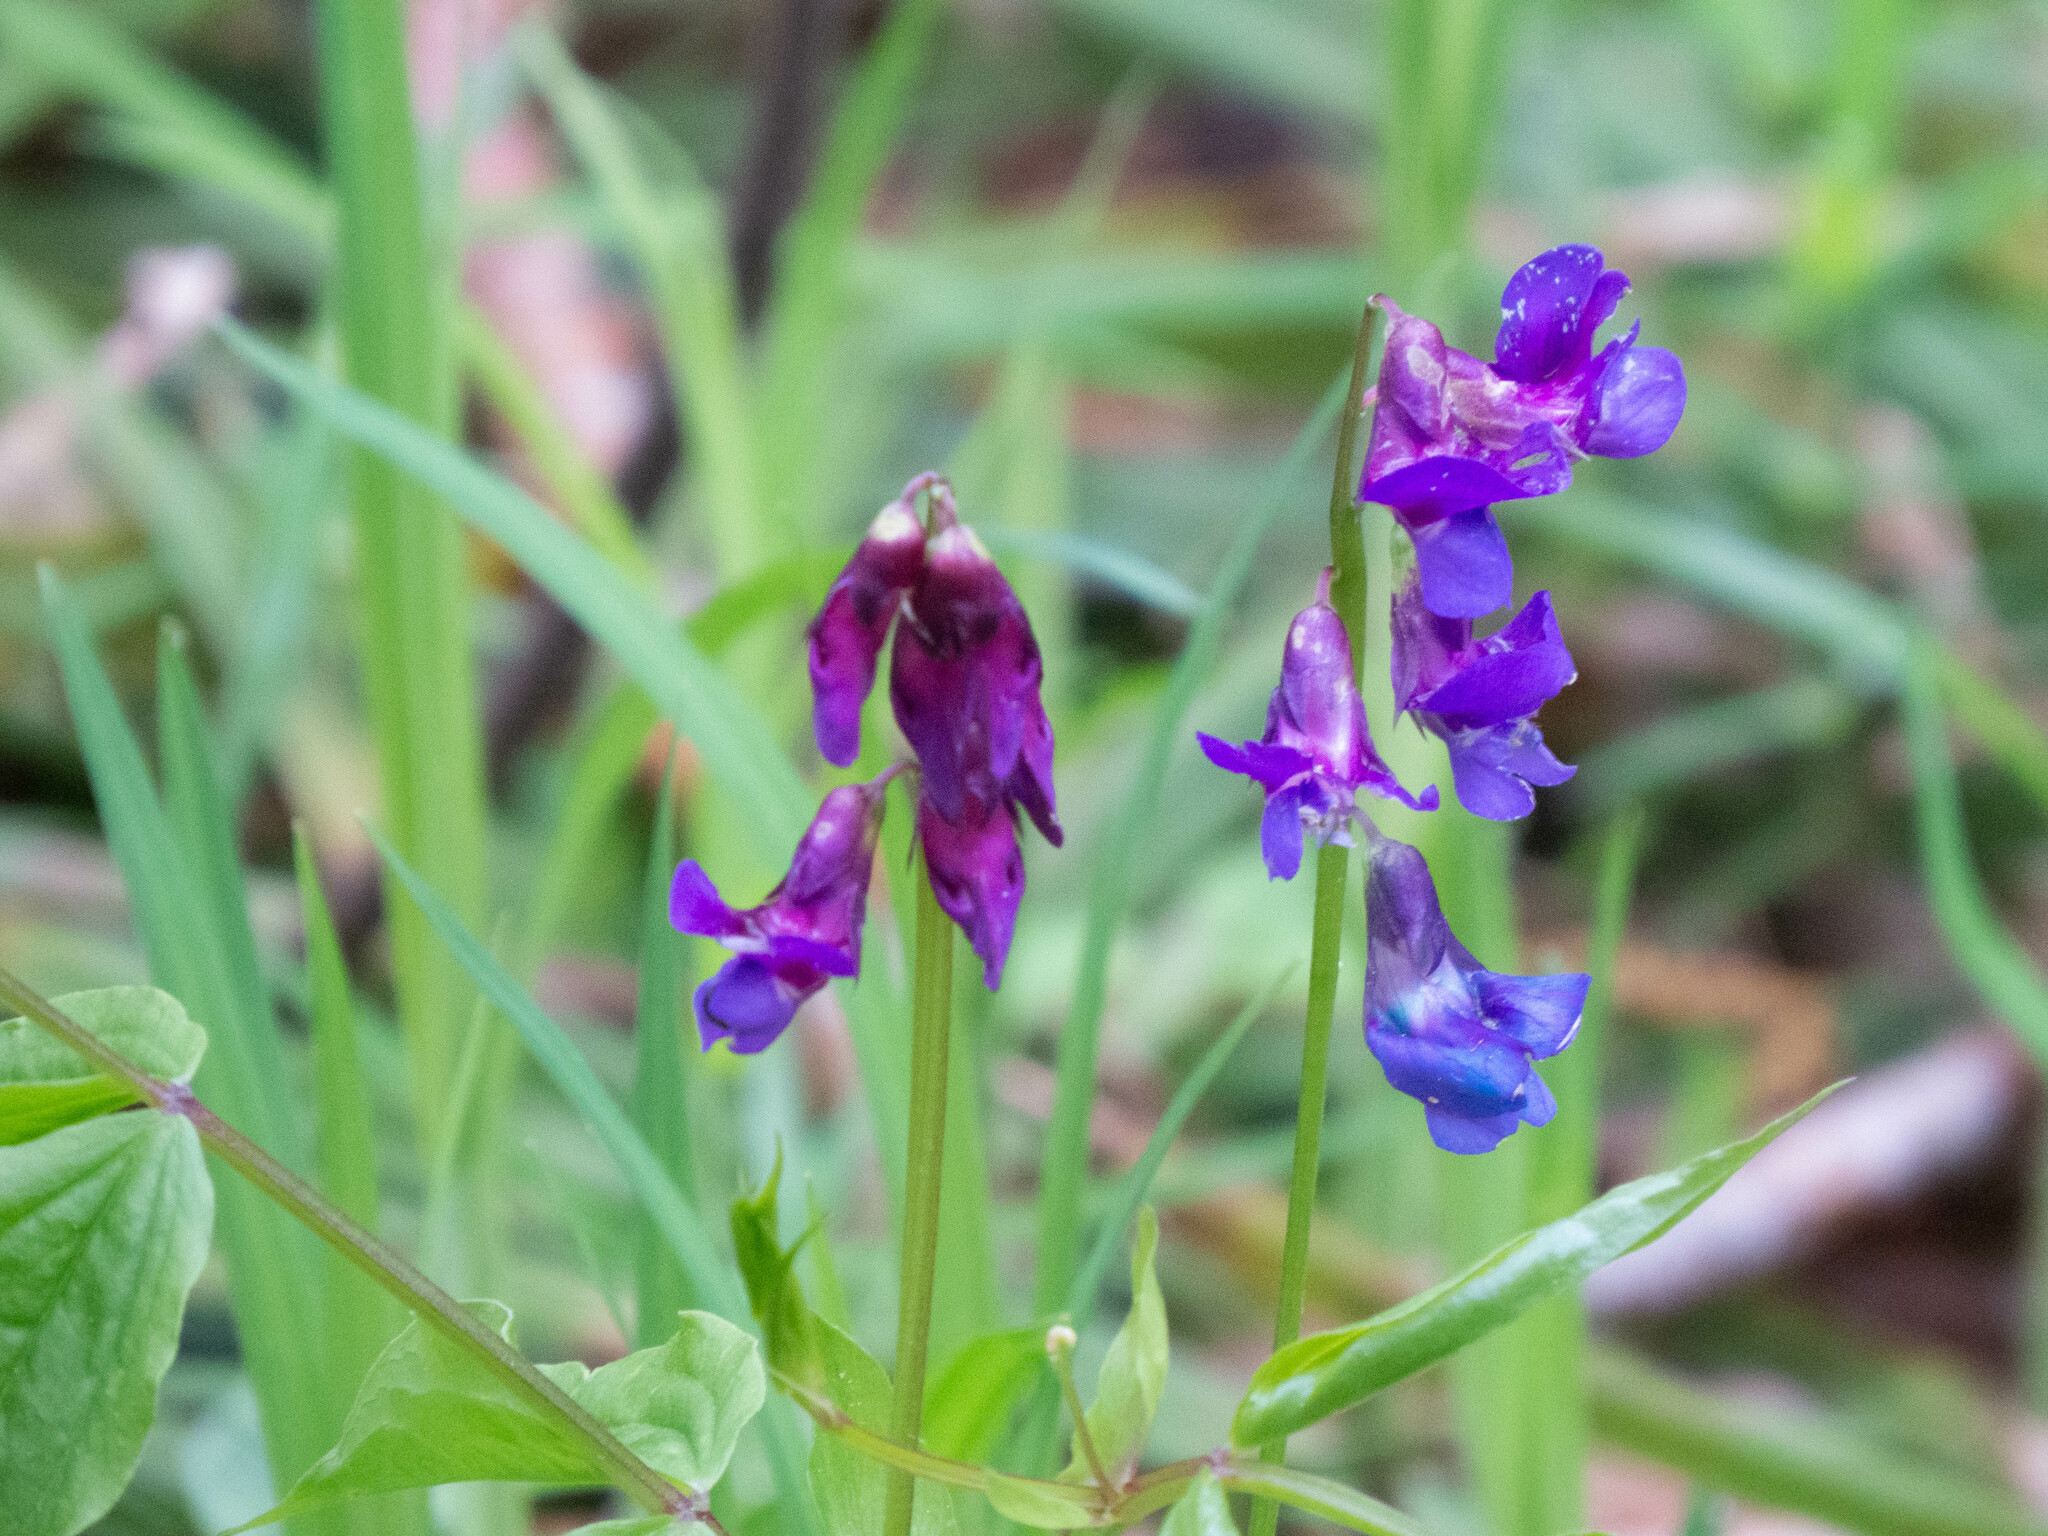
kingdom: Plantae
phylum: Tracheophyta
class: Magnoliopsida
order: Fabales
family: Fabaceae
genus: Lathyrus
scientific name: Lathyrus vernus
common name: Spring pea
